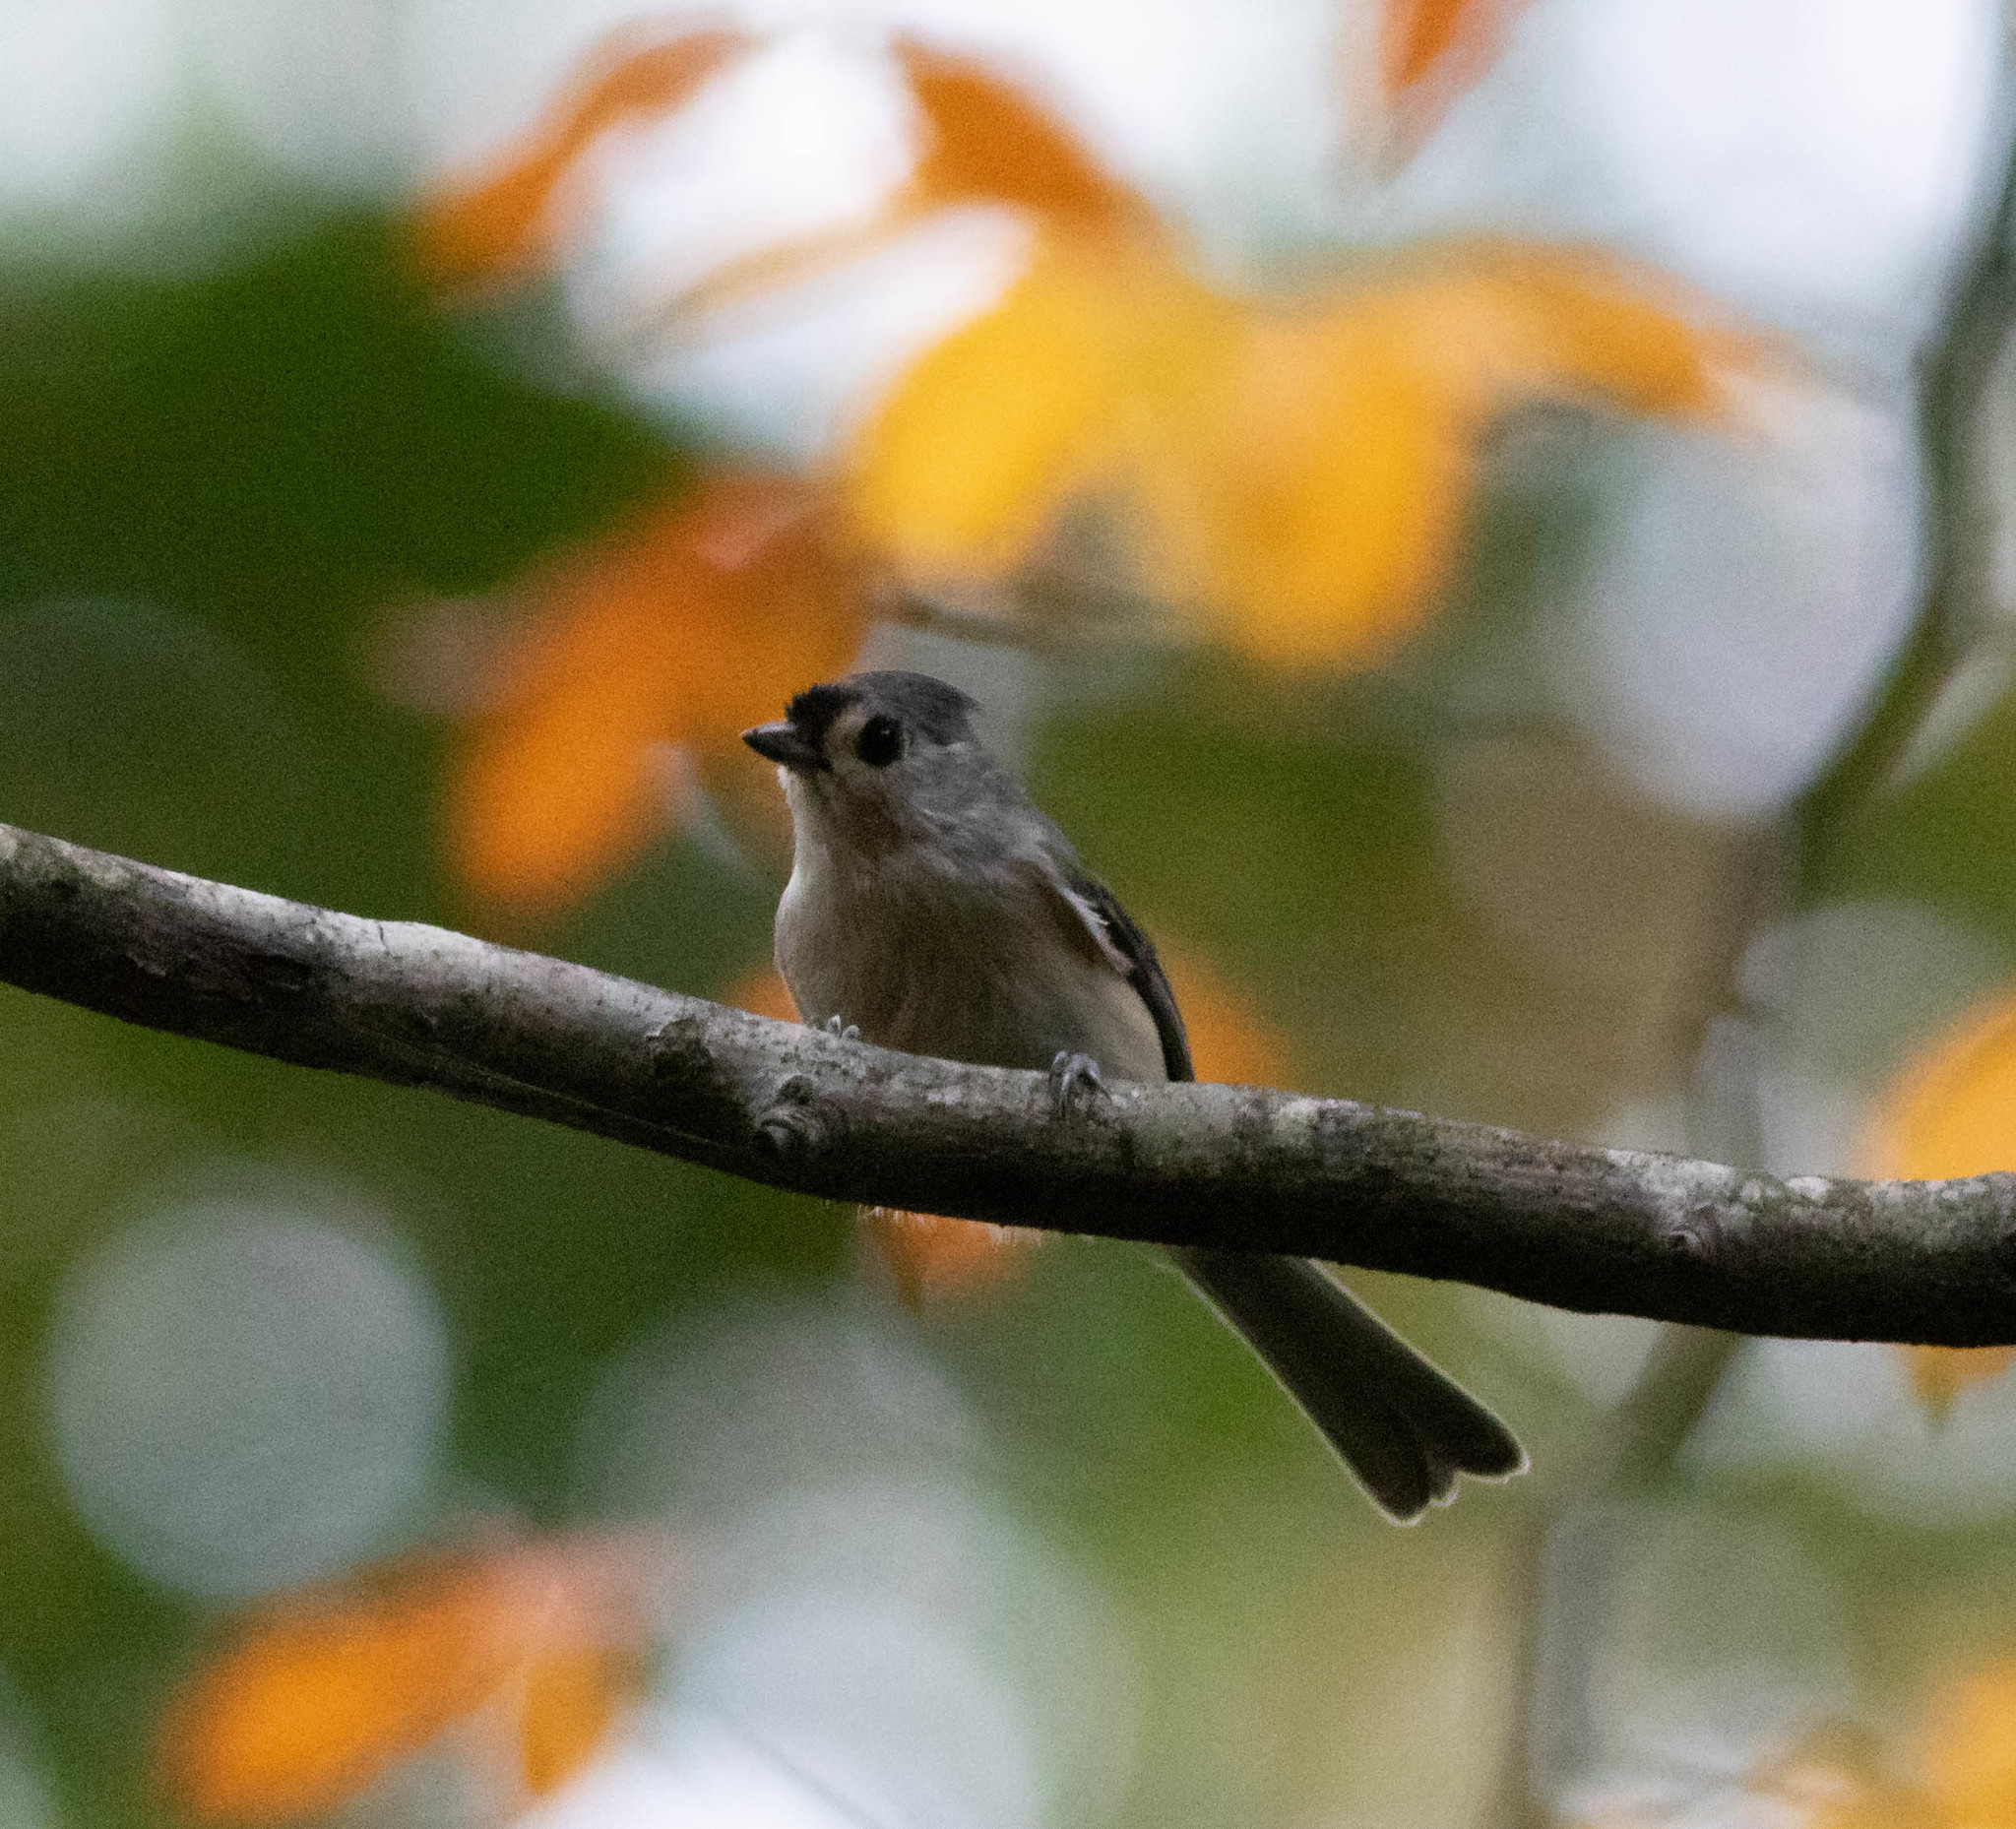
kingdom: Animalia
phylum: Chordata
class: Aves
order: Passeriformes
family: Paridae
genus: Baeolophus
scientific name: Baeolophus bicolor
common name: Tufted titmouse
